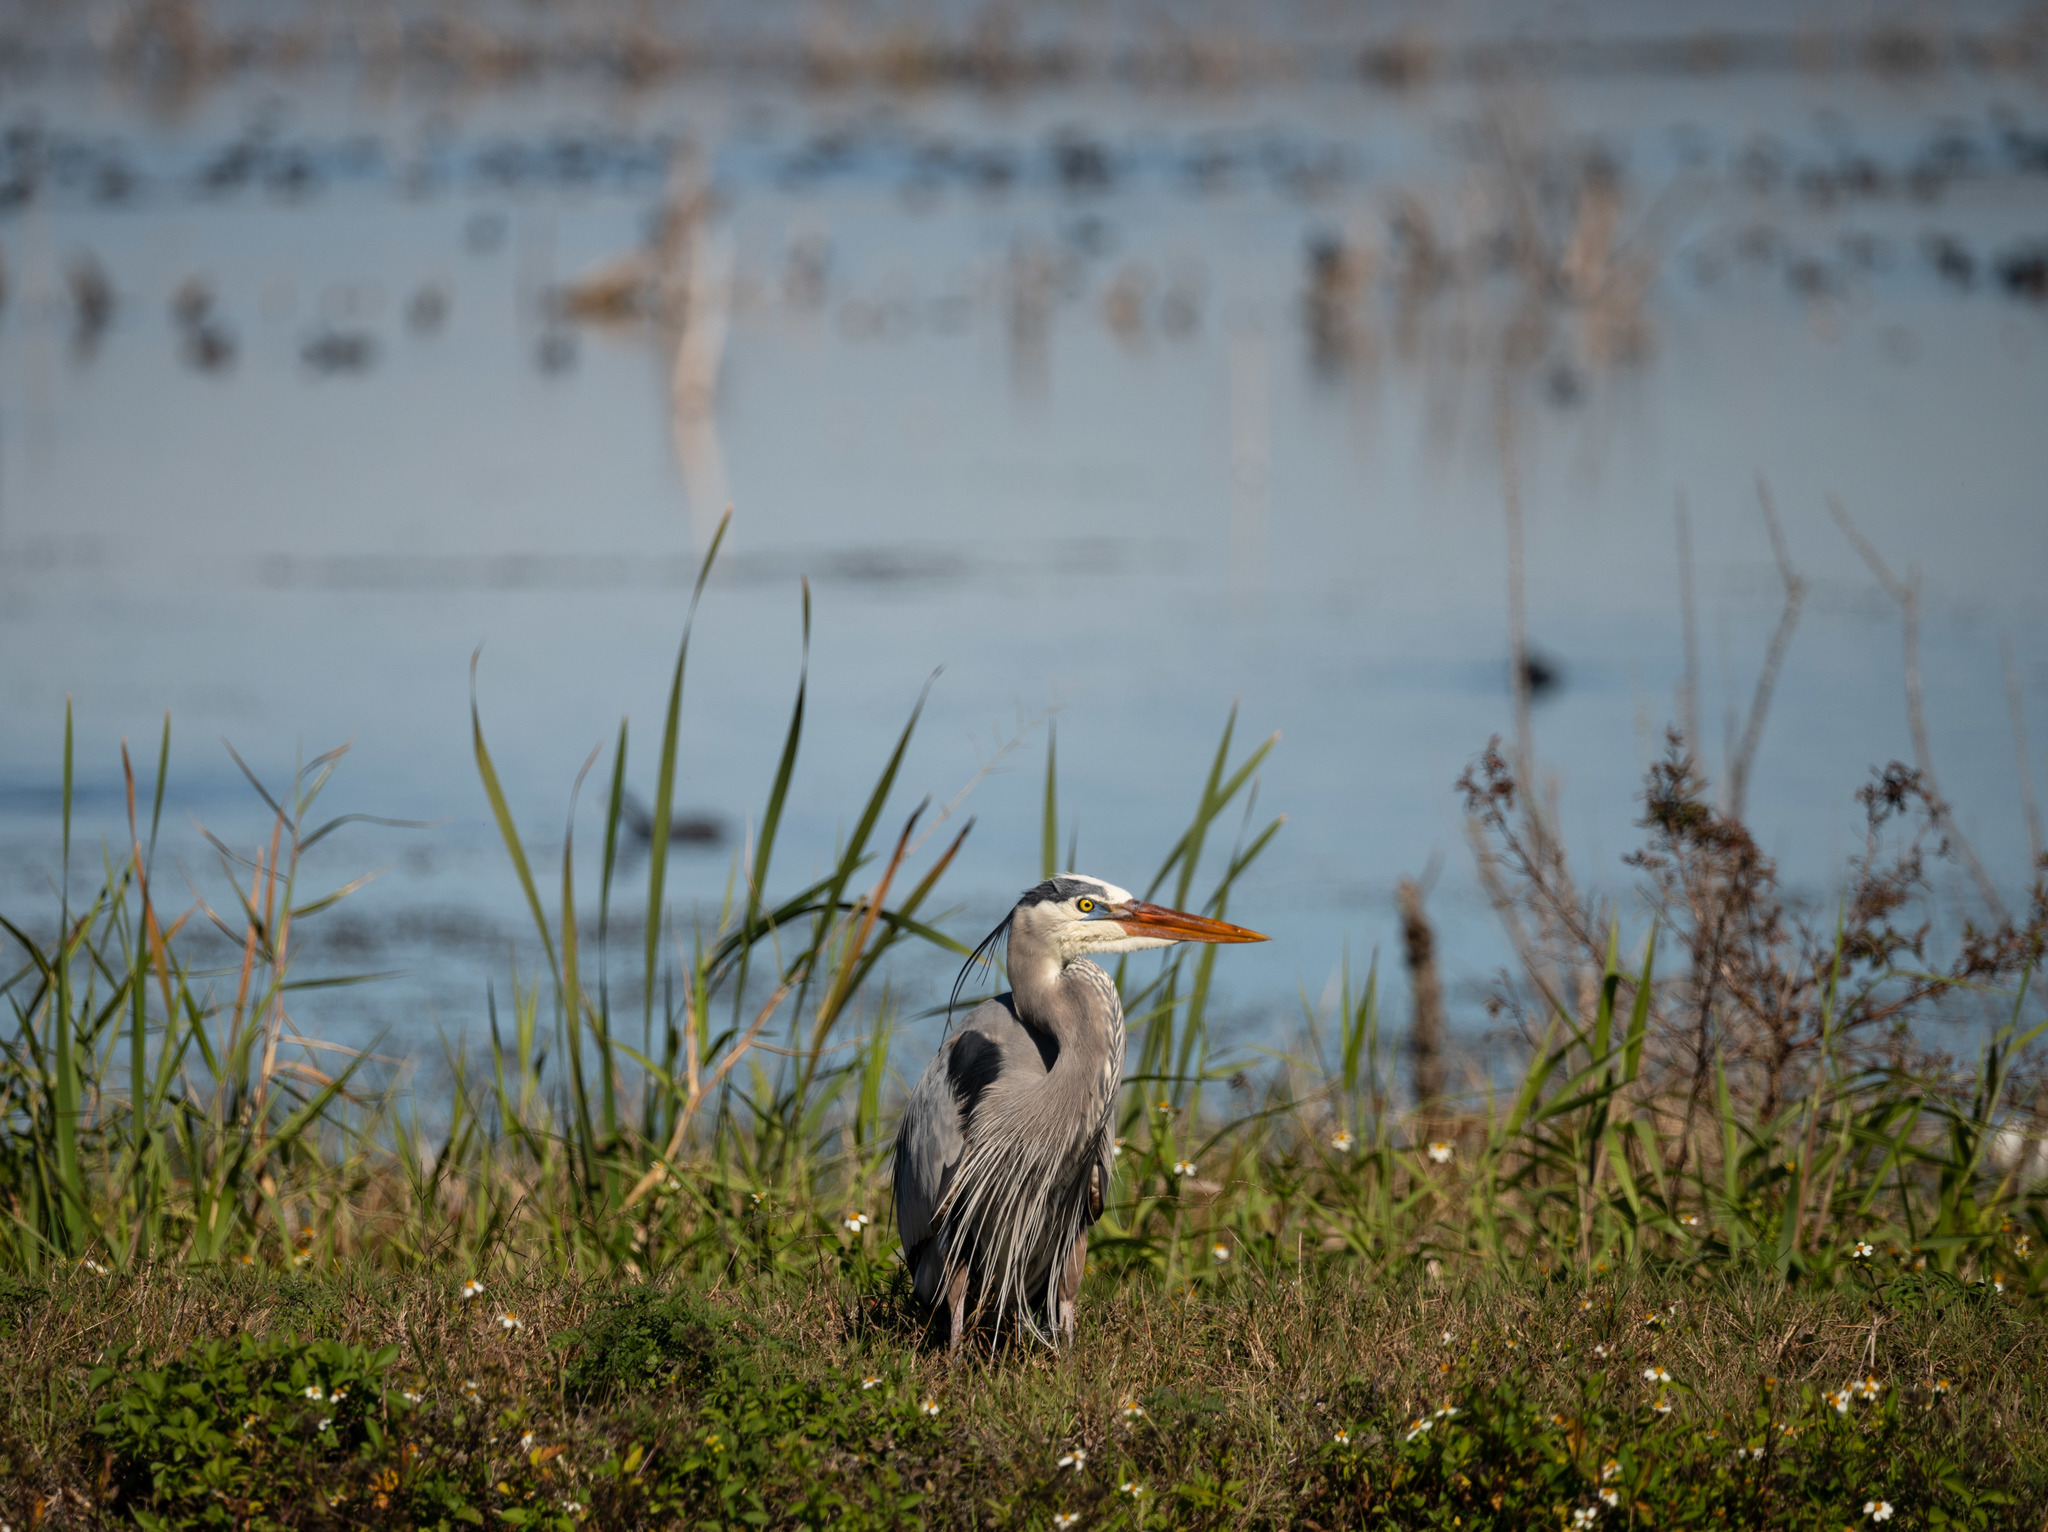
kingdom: Animalia
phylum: Chordata
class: Aves
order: Pelecaniformes
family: Ardeidae
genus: Ardea
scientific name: Ardea herodias
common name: Great blue heron
